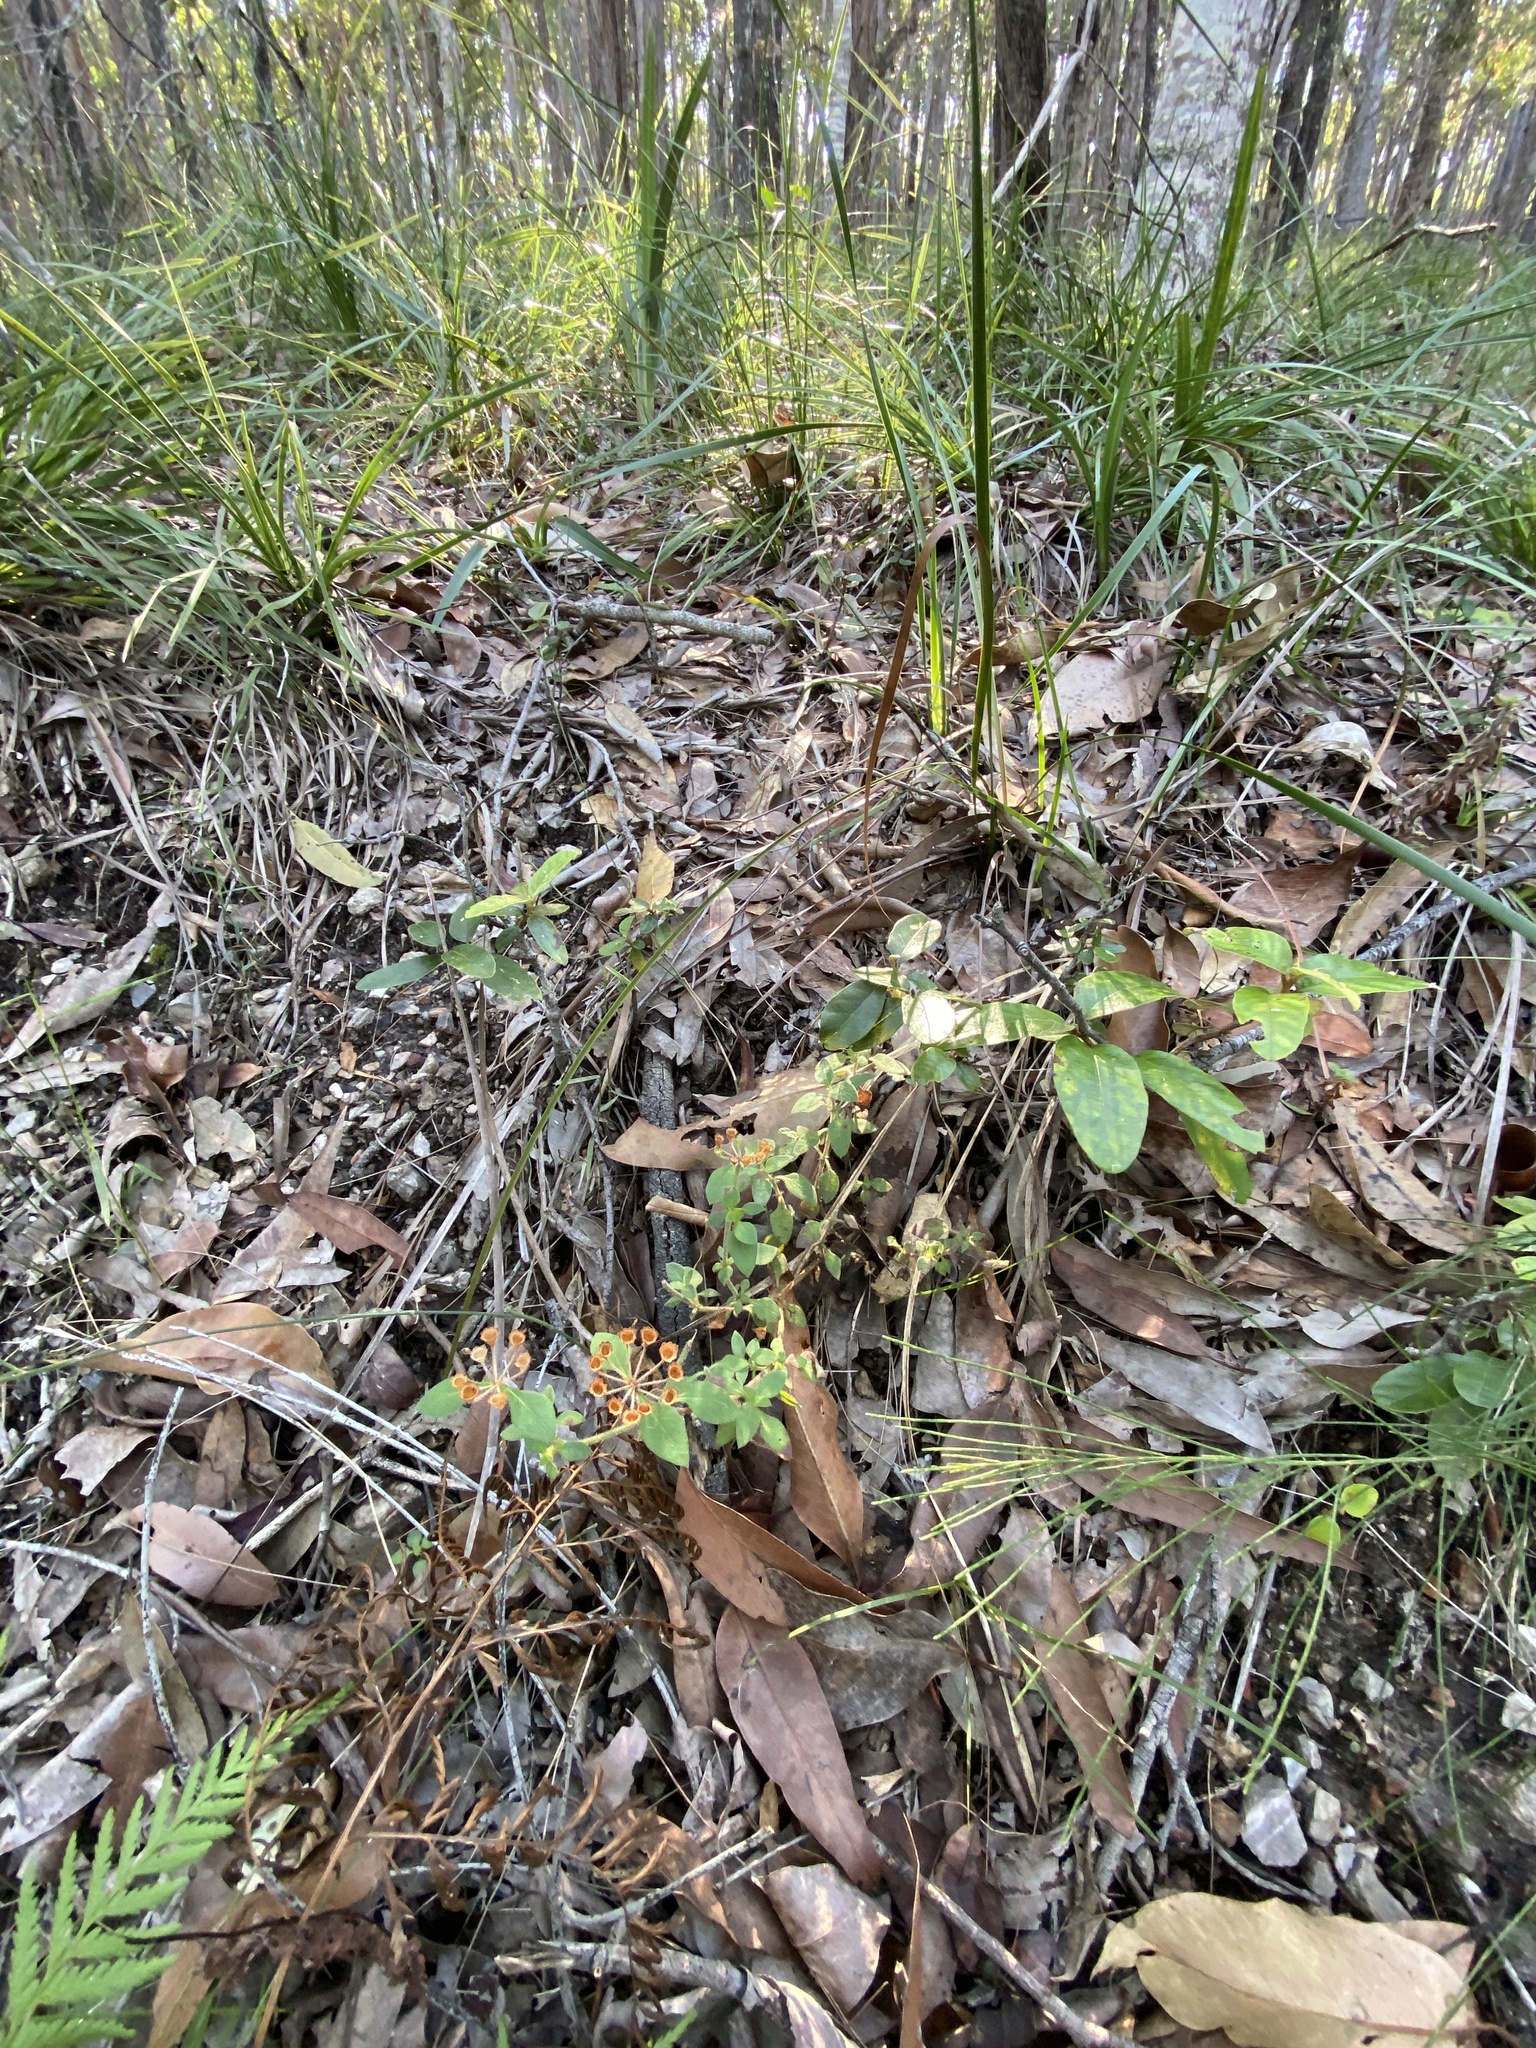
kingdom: Plantae
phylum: Tracheophyta
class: Magnoliopsida
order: Gentianales
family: Rubiaceae
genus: Pomax
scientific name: Pomax umbellata
